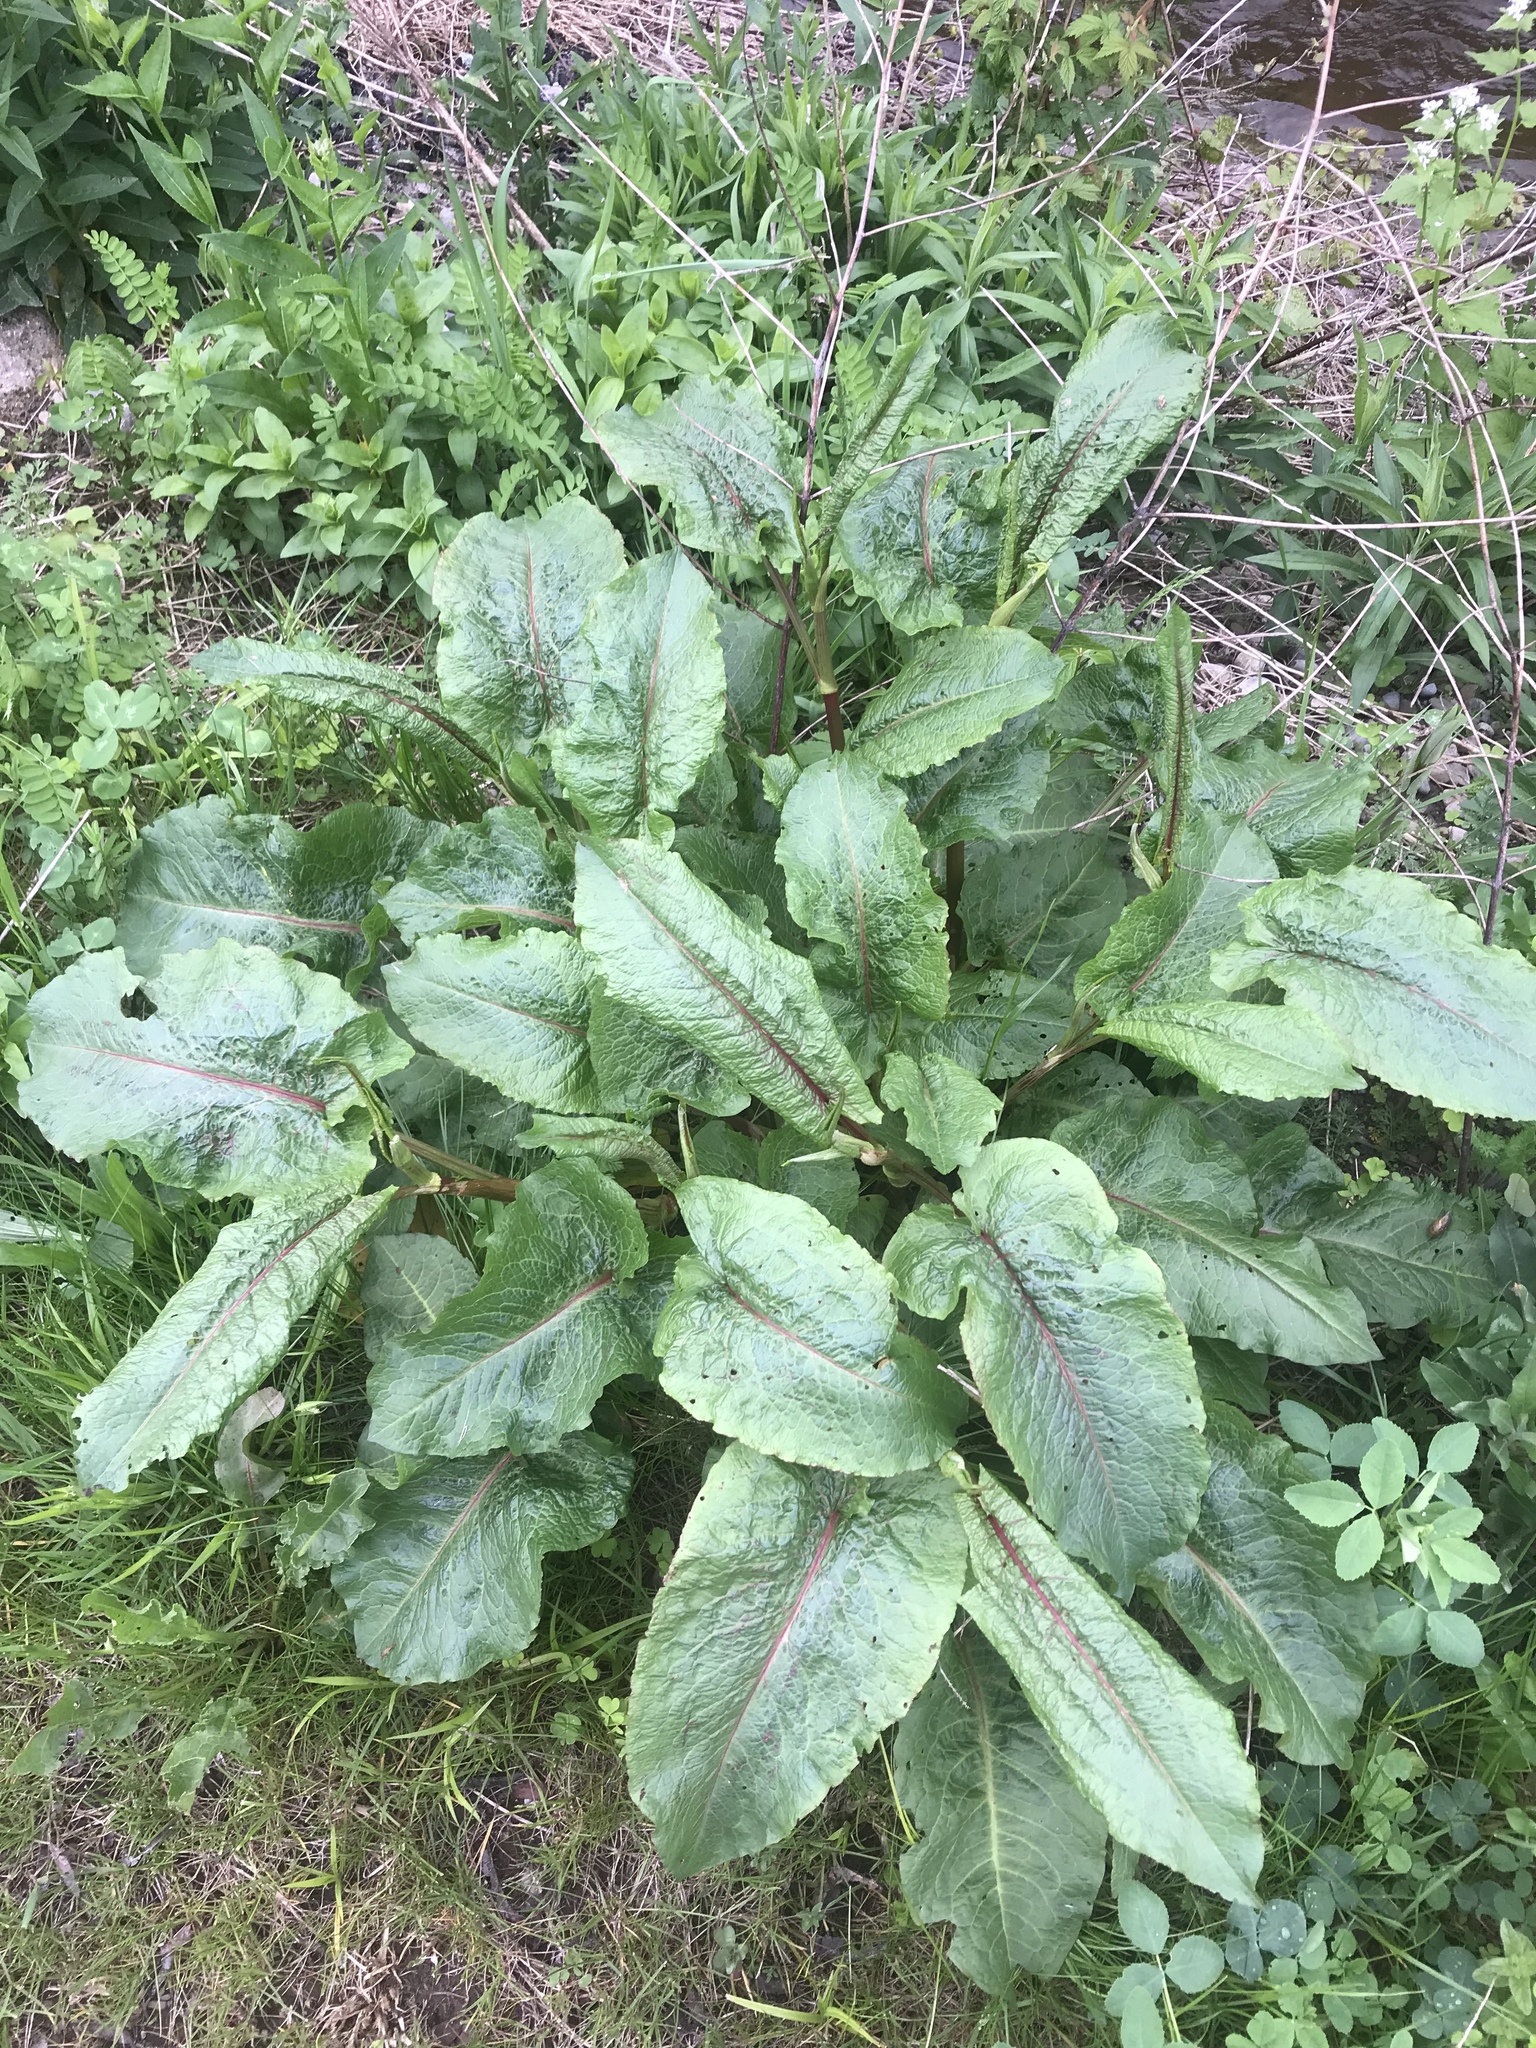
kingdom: Plantae
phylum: Tracheophyta
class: Magnoliopsida
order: Caryophyllales
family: Polygonaceae
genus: Rumex
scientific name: Rumex crispus
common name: Curled dock
